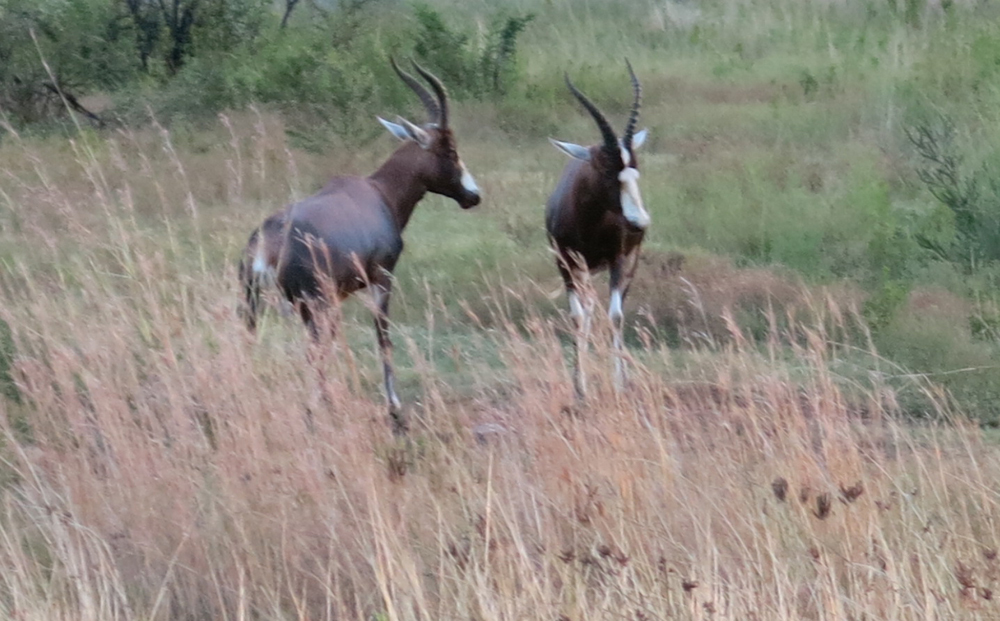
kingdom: Animalia
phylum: Chordata
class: Mammalia
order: Artiodactyla
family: Bovidae
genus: Damaliscus
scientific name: Damaliscus pygargus
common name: Bontebok
